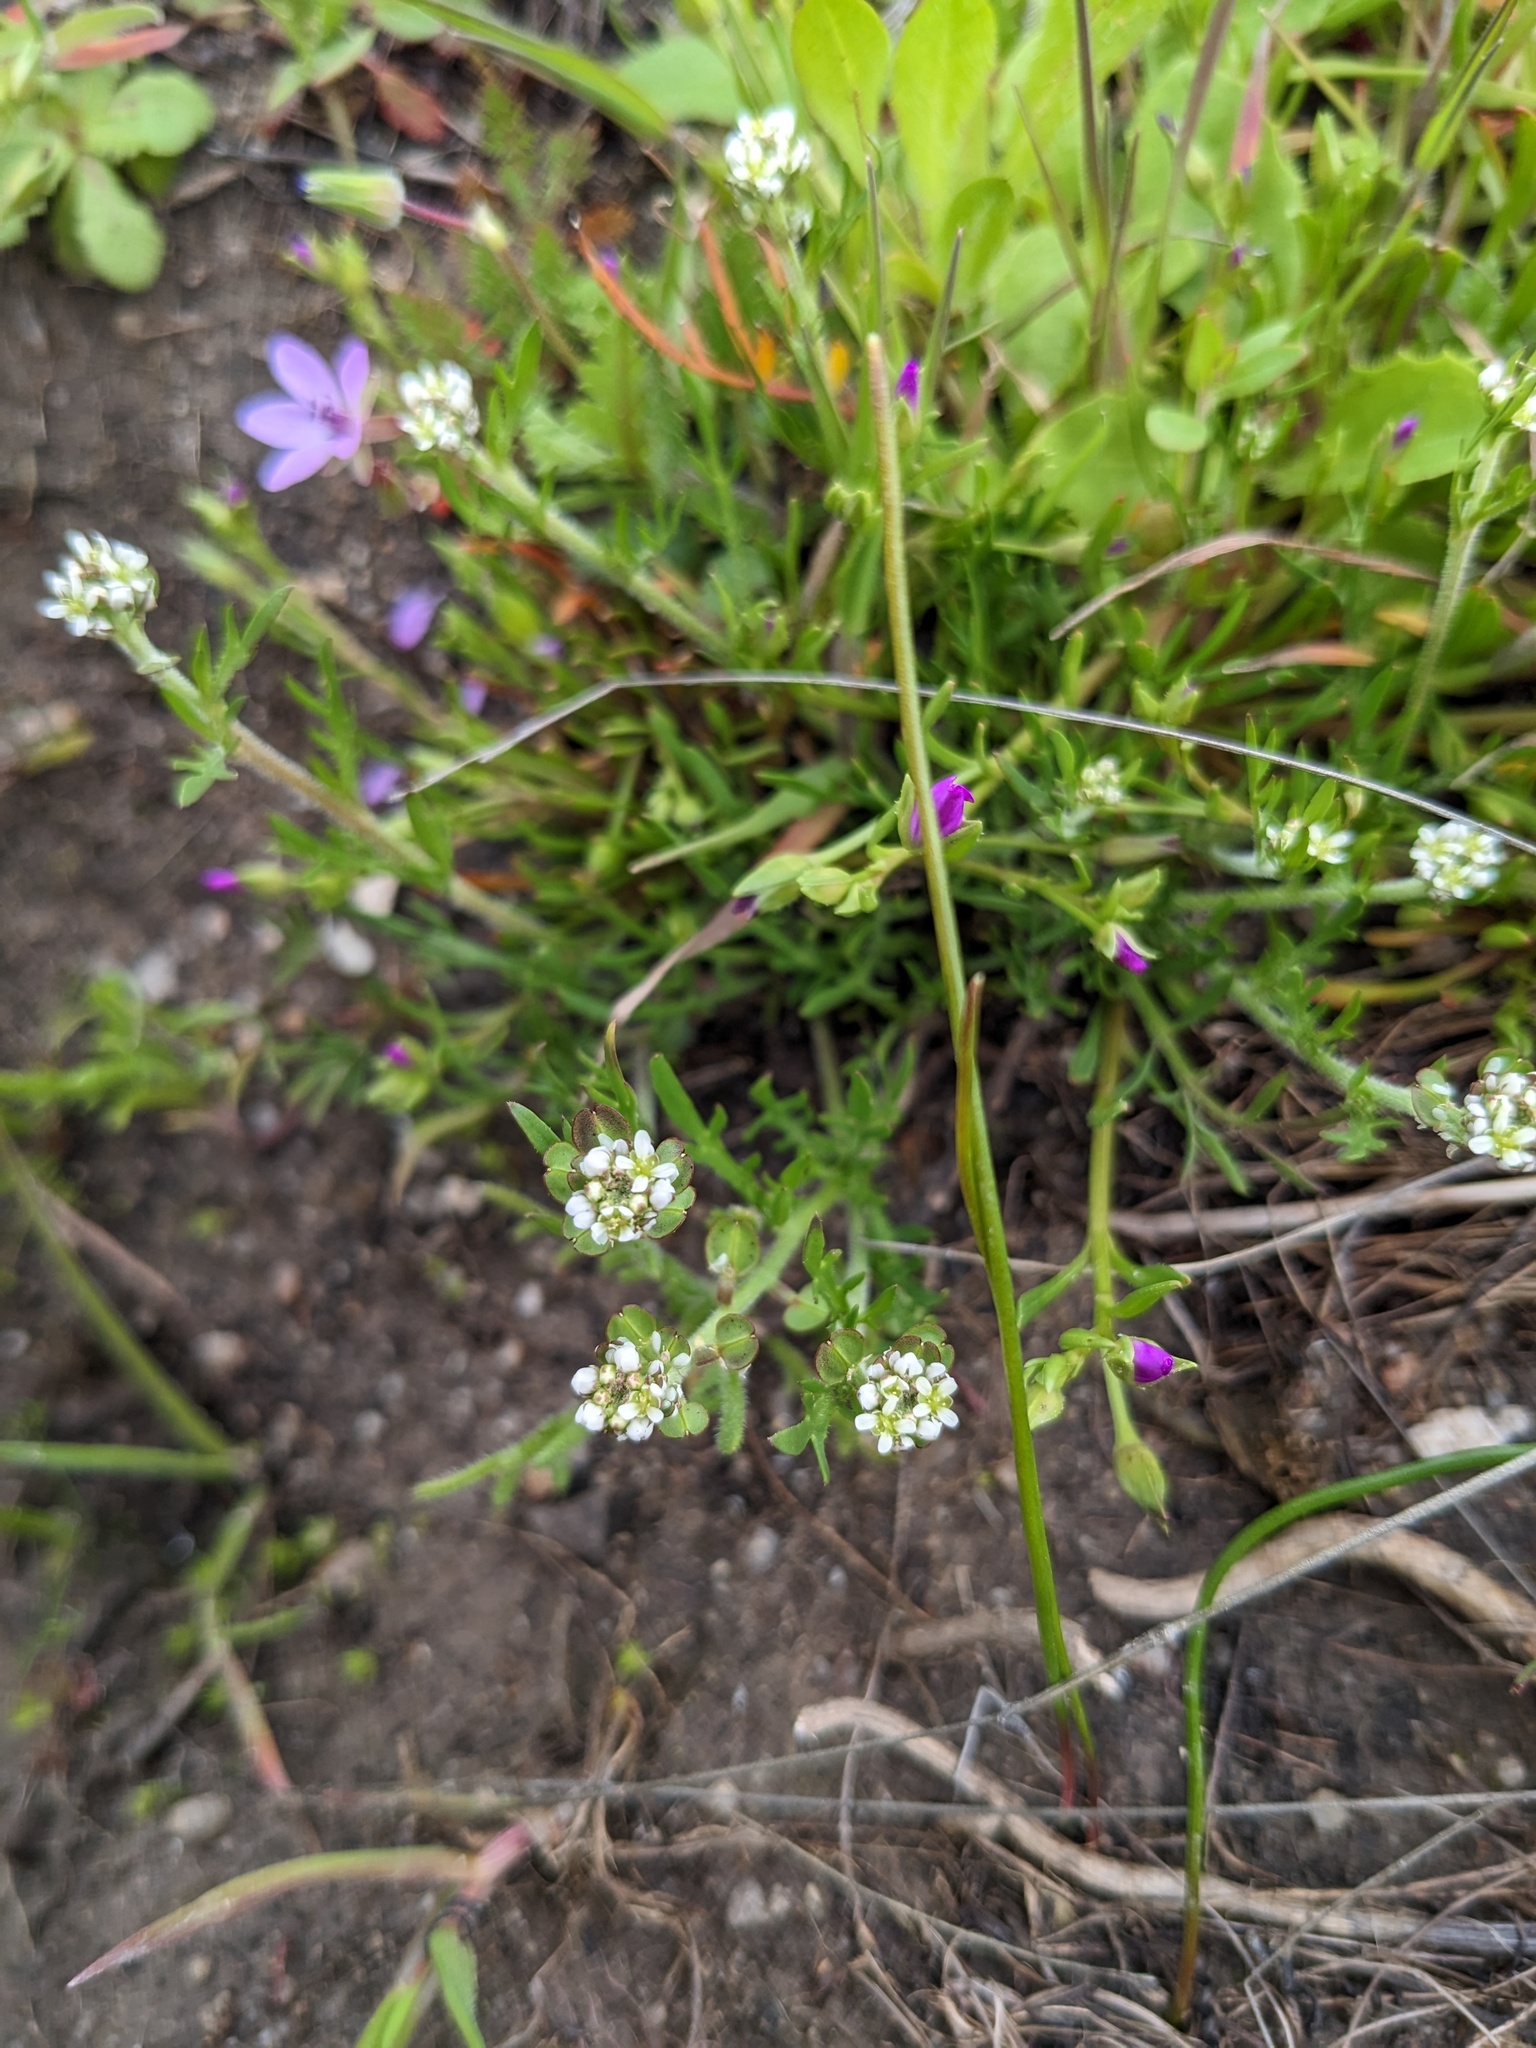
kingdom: Plantae
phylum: Tracheophyta
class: Magnoliopsida
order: Brassicales
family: Brassicaceae
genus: Lepidium
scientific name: Lepidium nitidum
